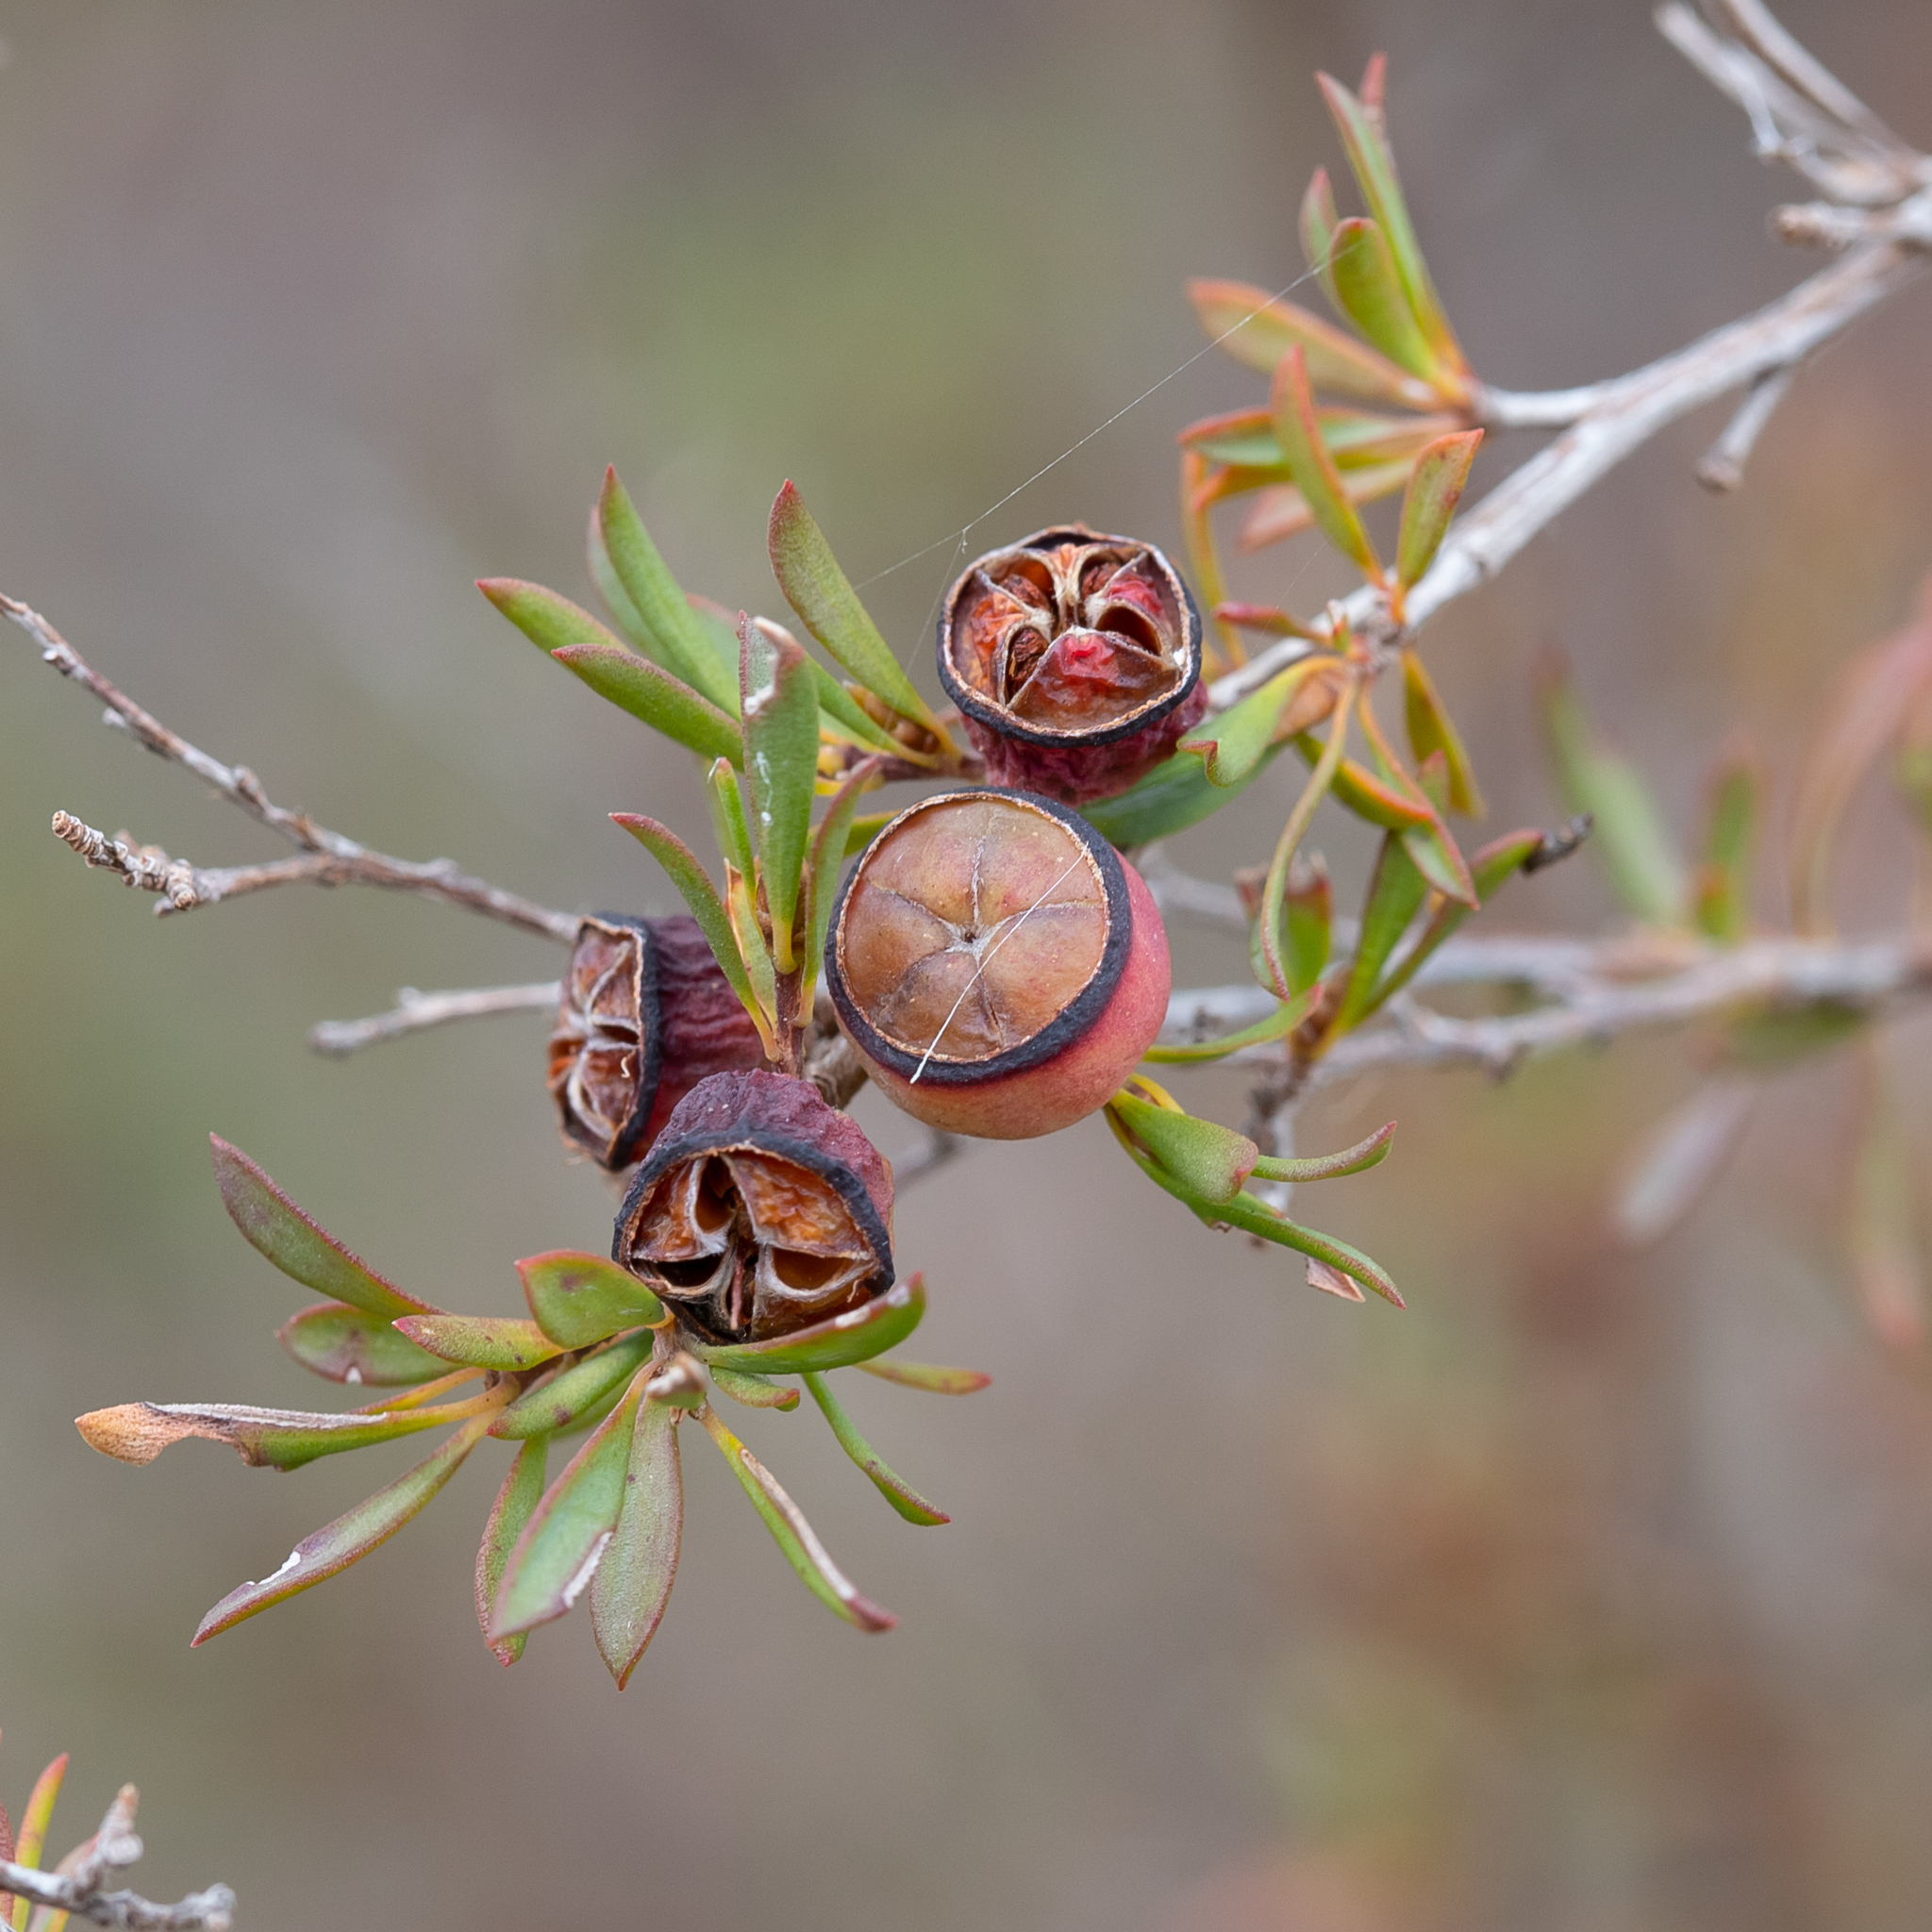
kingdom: Plantae
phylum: Tracheophyta
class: Magnoliopsida
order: Myrtales
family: Myrtaceae
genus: Leptospermum
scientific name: Leptospermum myrsinoides
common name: Heath teatree
